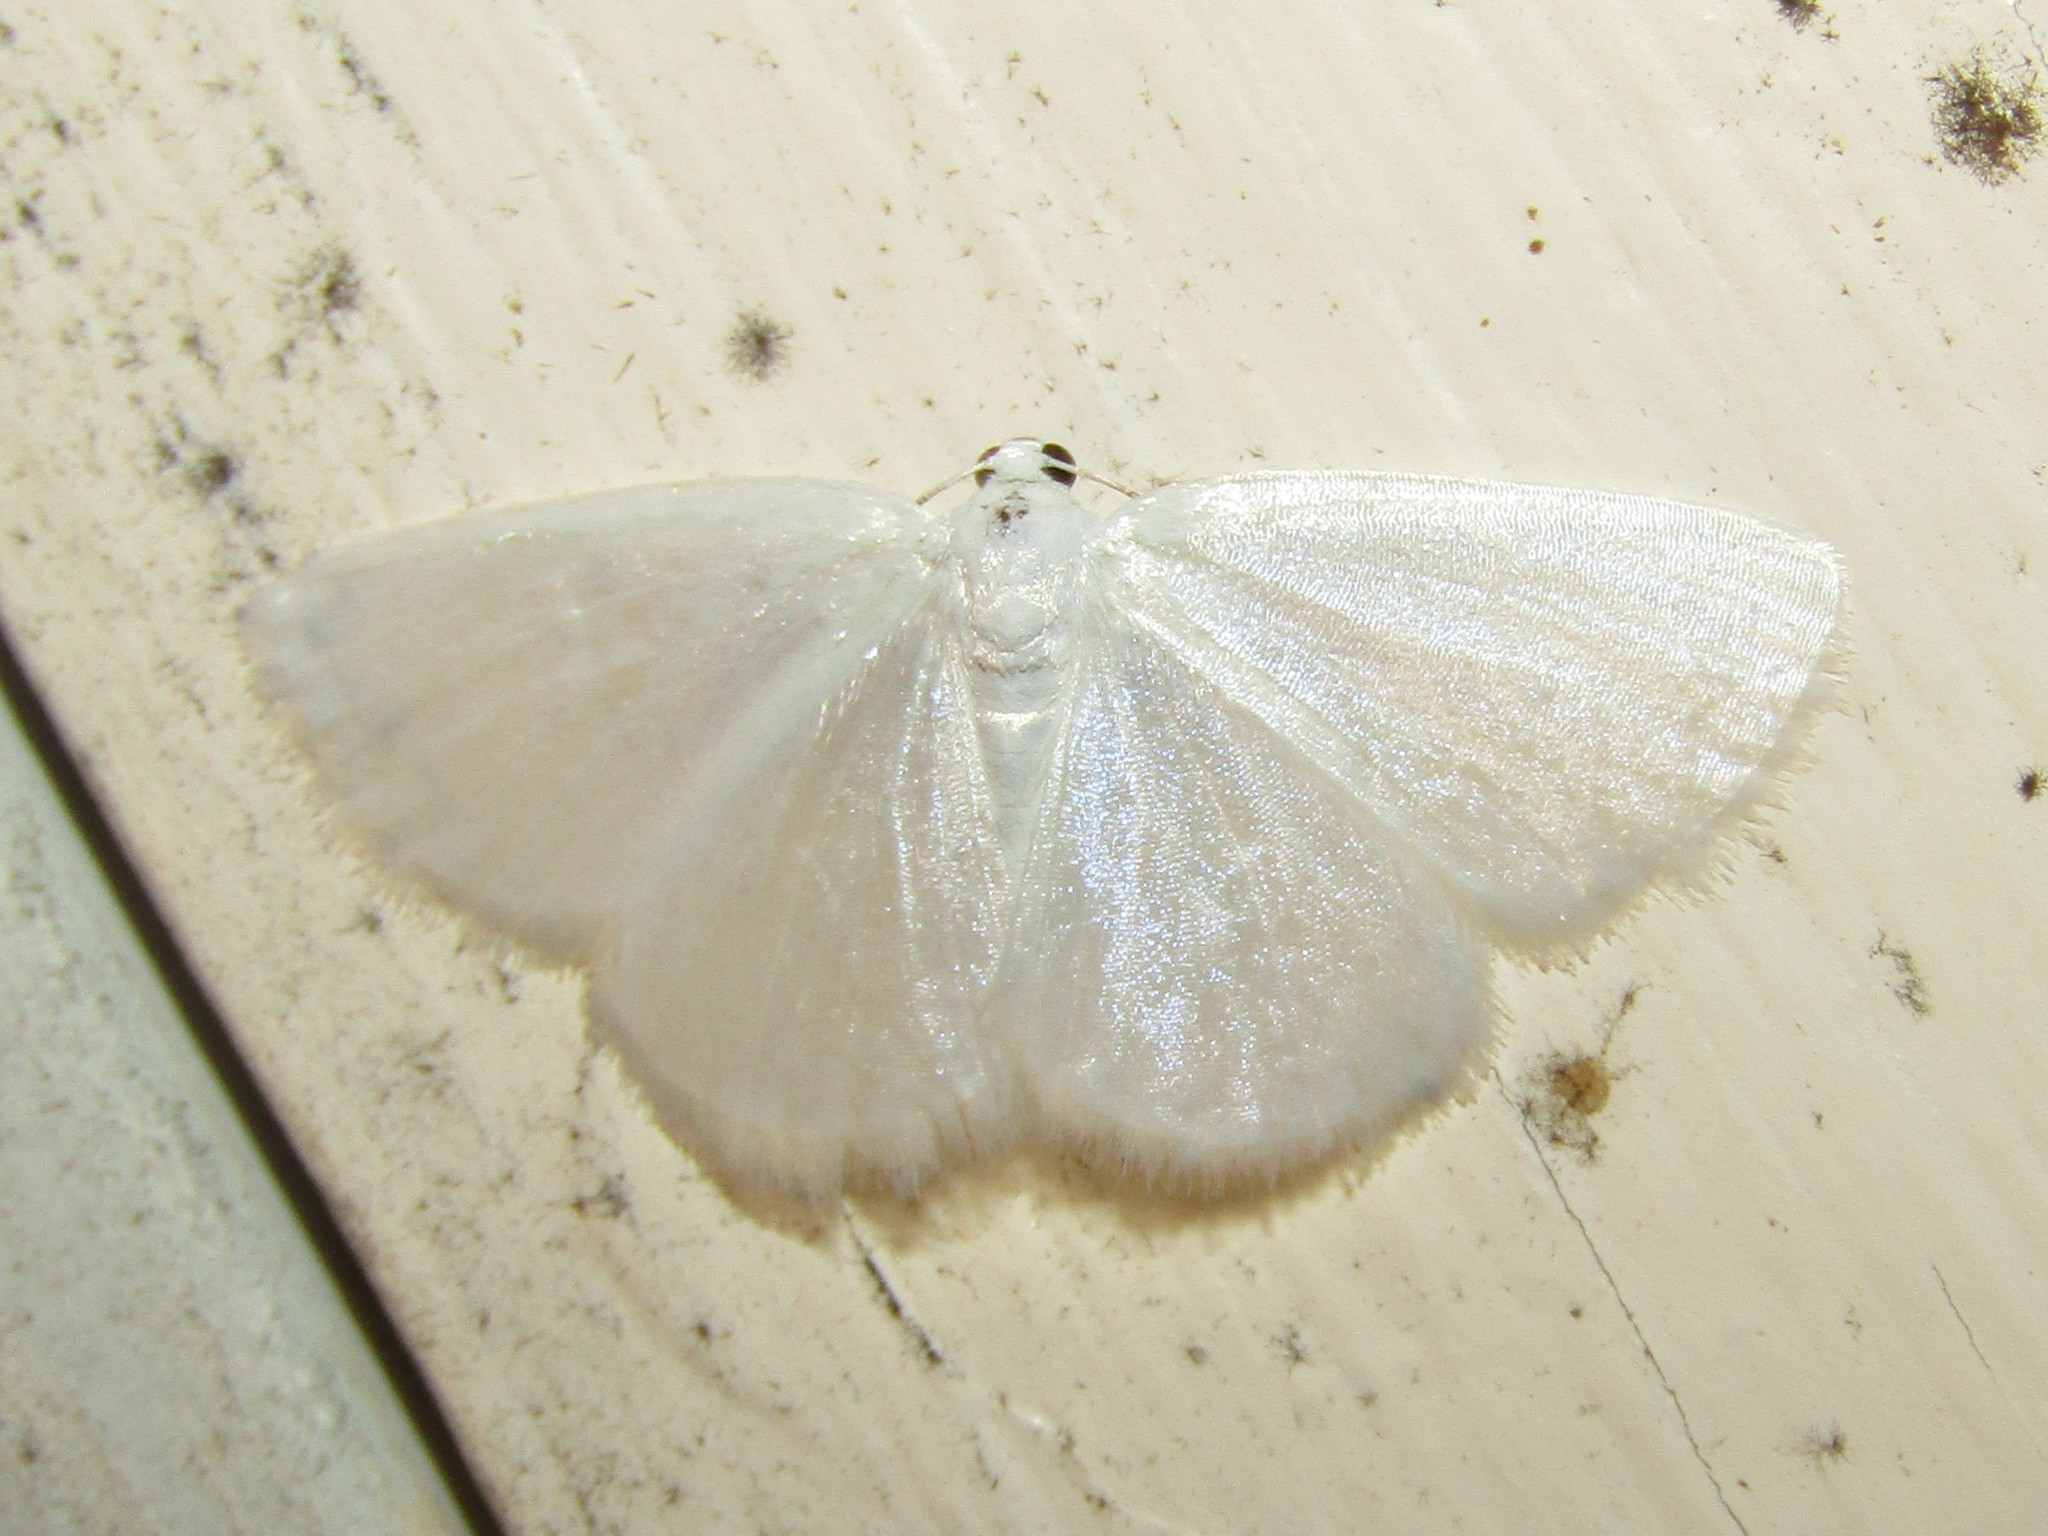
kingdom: Animalia
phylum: Arthropoda
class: Insecta
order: Lepidoptera
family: Geometridae
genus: Lomographa
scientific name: Lomographa vestaliata
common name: White spring moth
